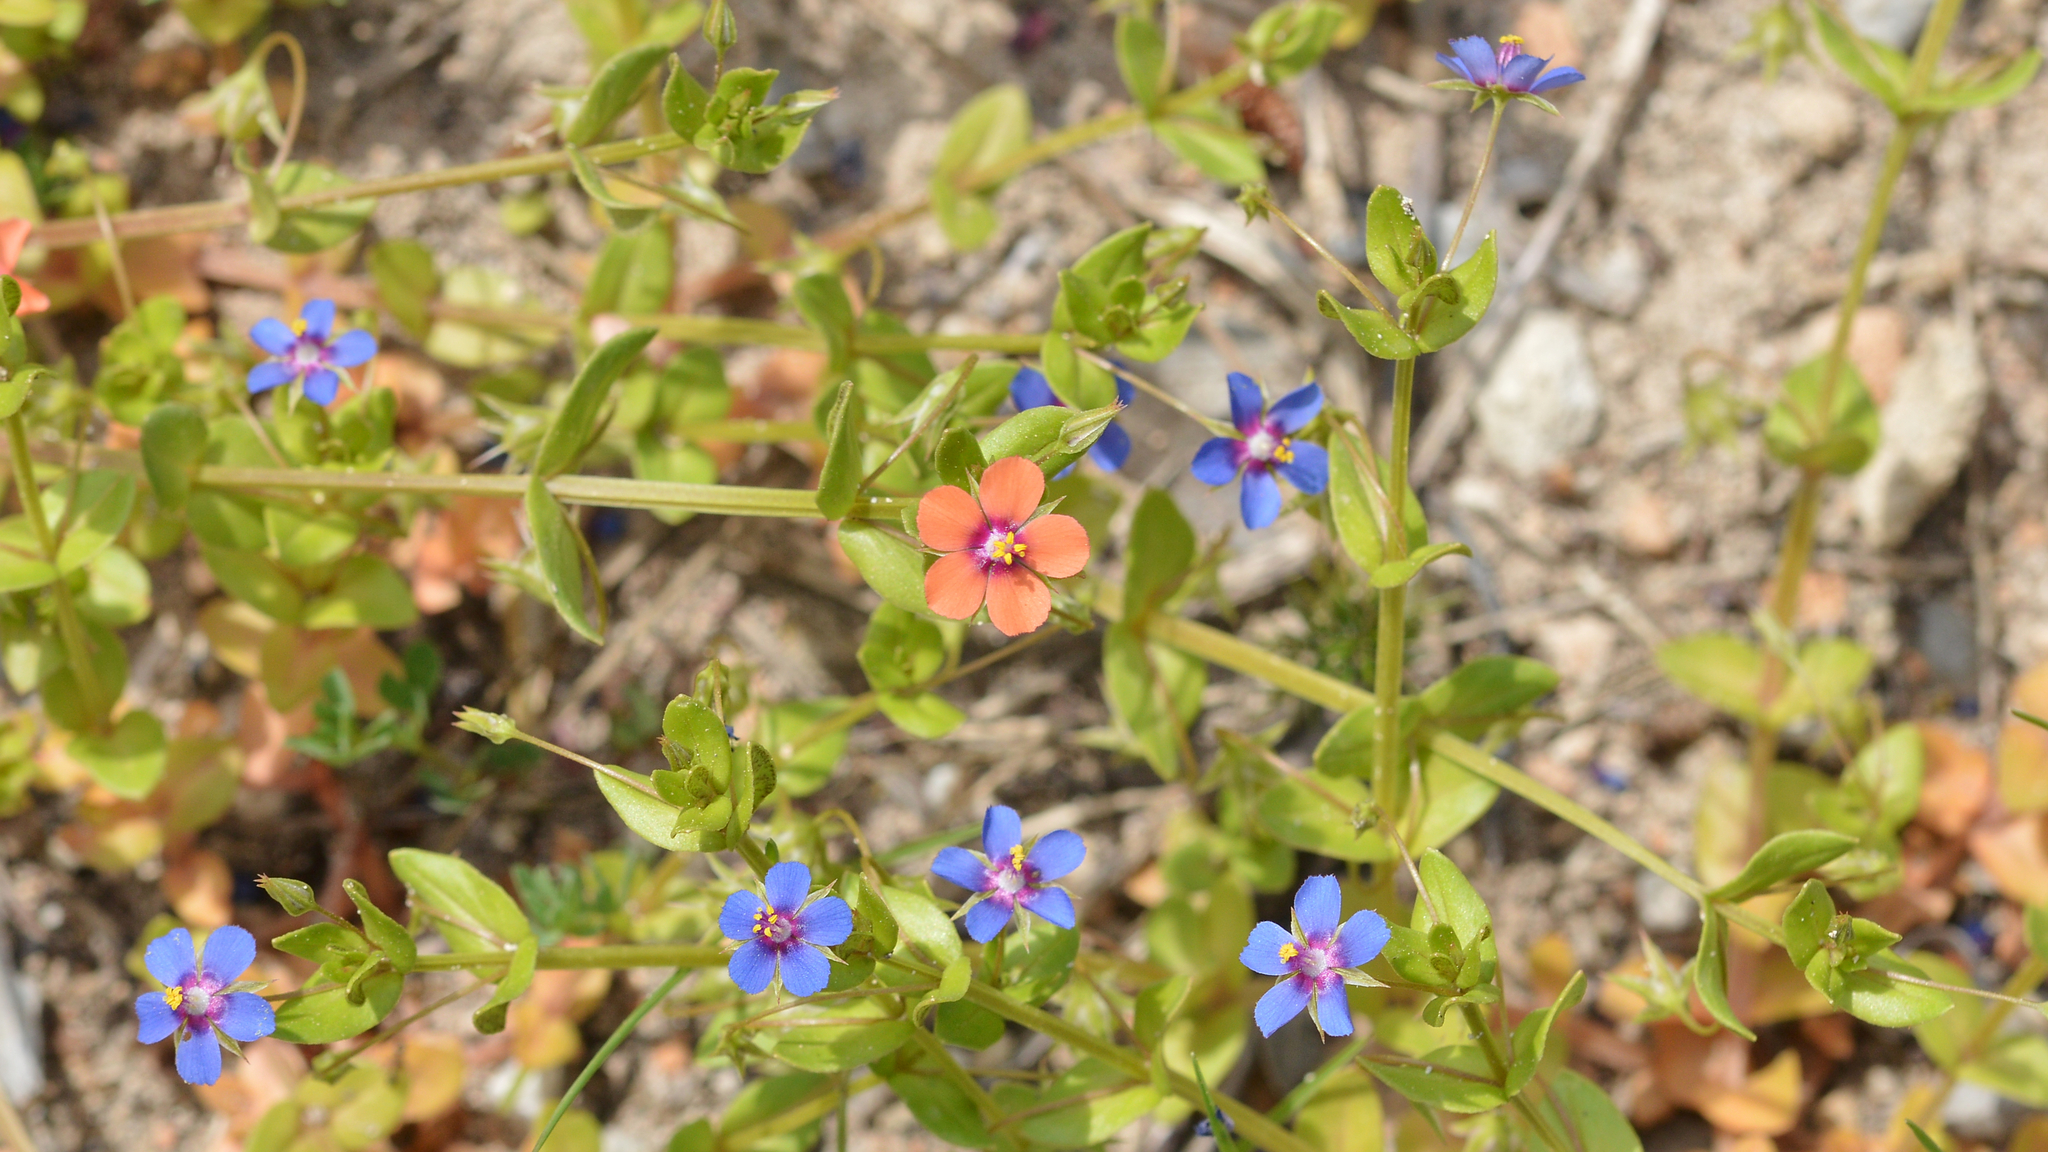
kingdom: Plantae
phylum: Tracheophyta
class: Magnoliopsida
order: Ericales
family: Primulaceae
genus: Lysimachia
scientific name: Lysimachia loeflingii
